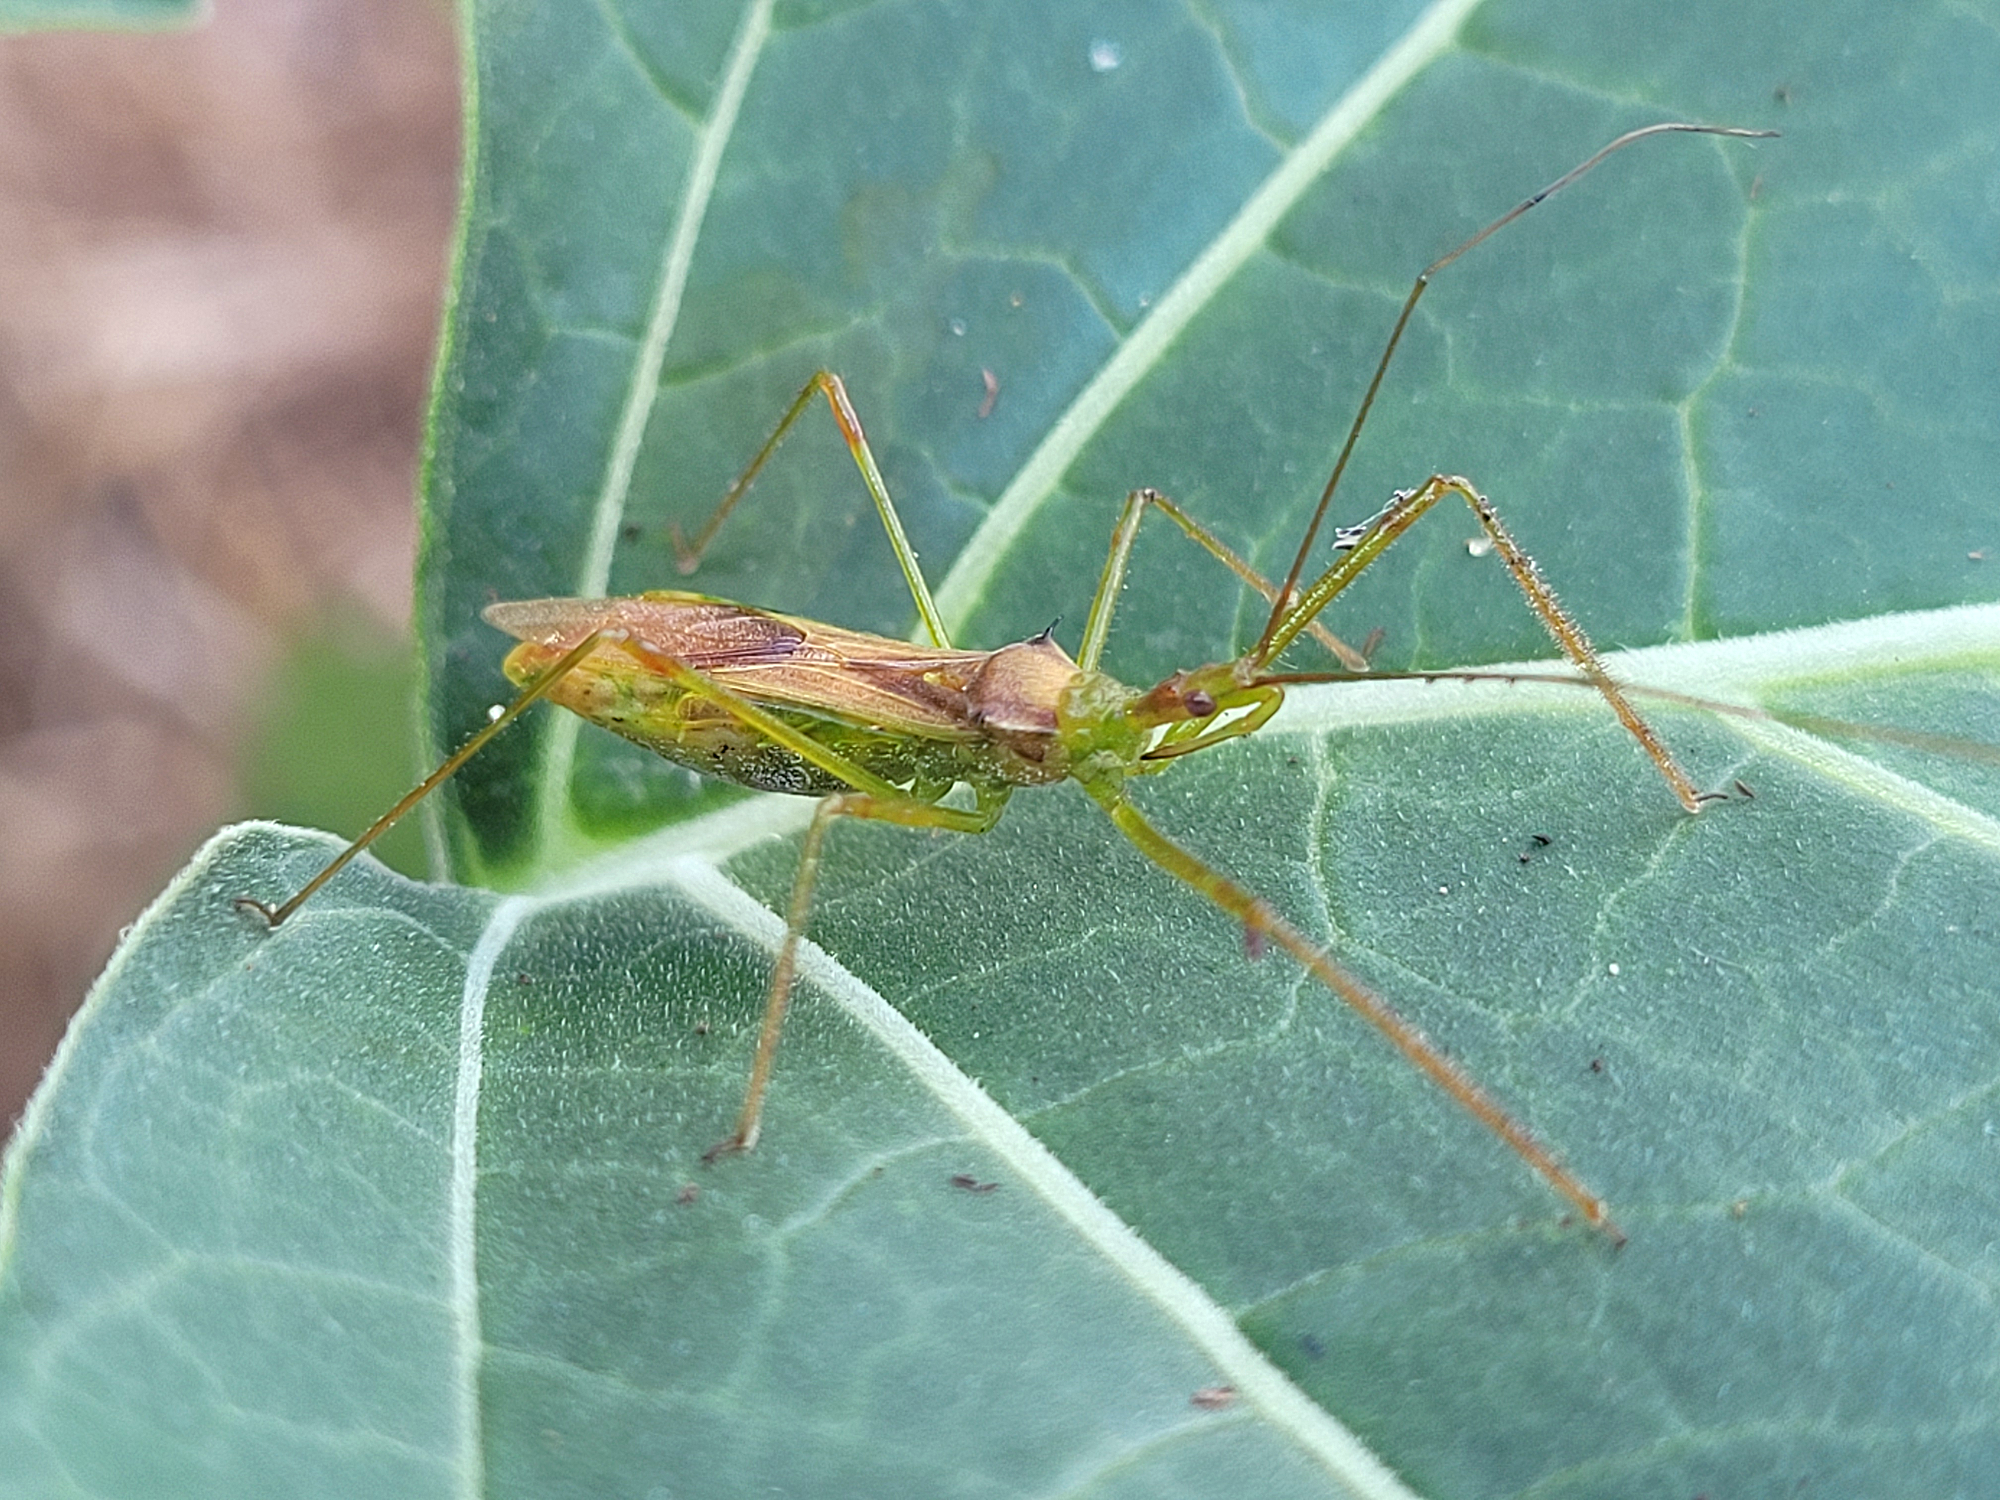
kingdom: Animalia
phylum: Arthropoda
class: Insecta
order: Hemiptera
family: Reduviidae
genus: Zelus
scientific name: Zelus luridus
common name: Pale green assassin bug
